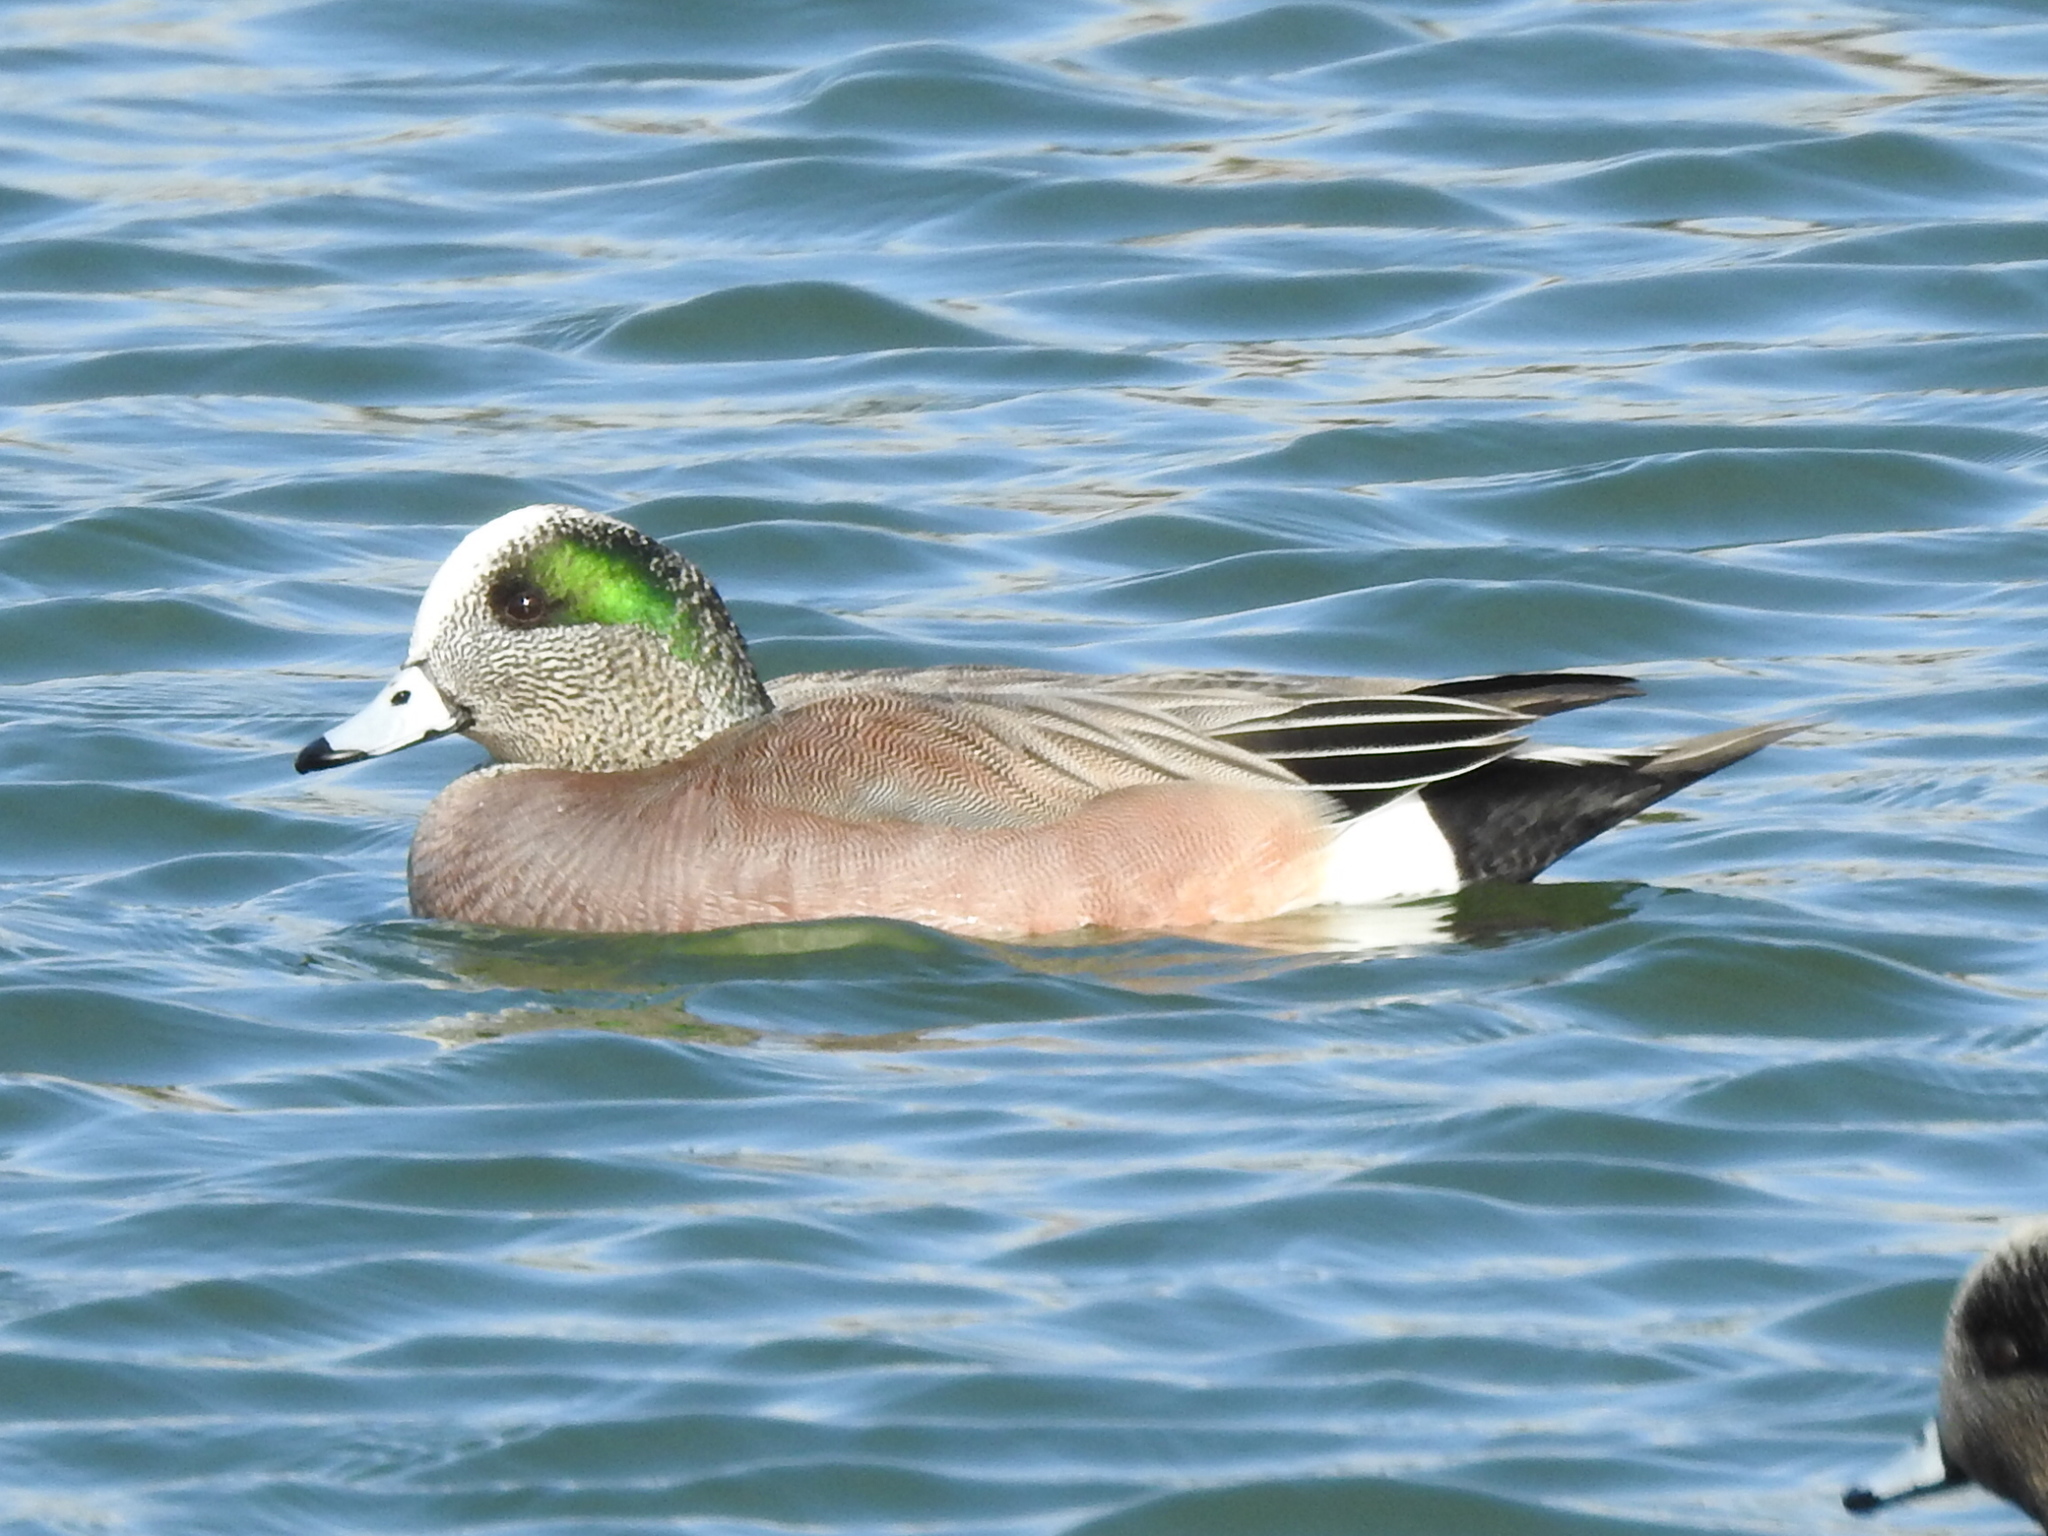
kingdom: Animalia
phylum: Chordata
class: Aves
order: Anseriformes
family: Anatidae
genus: Mareca
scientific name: Mareca americana
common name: American wigeon
